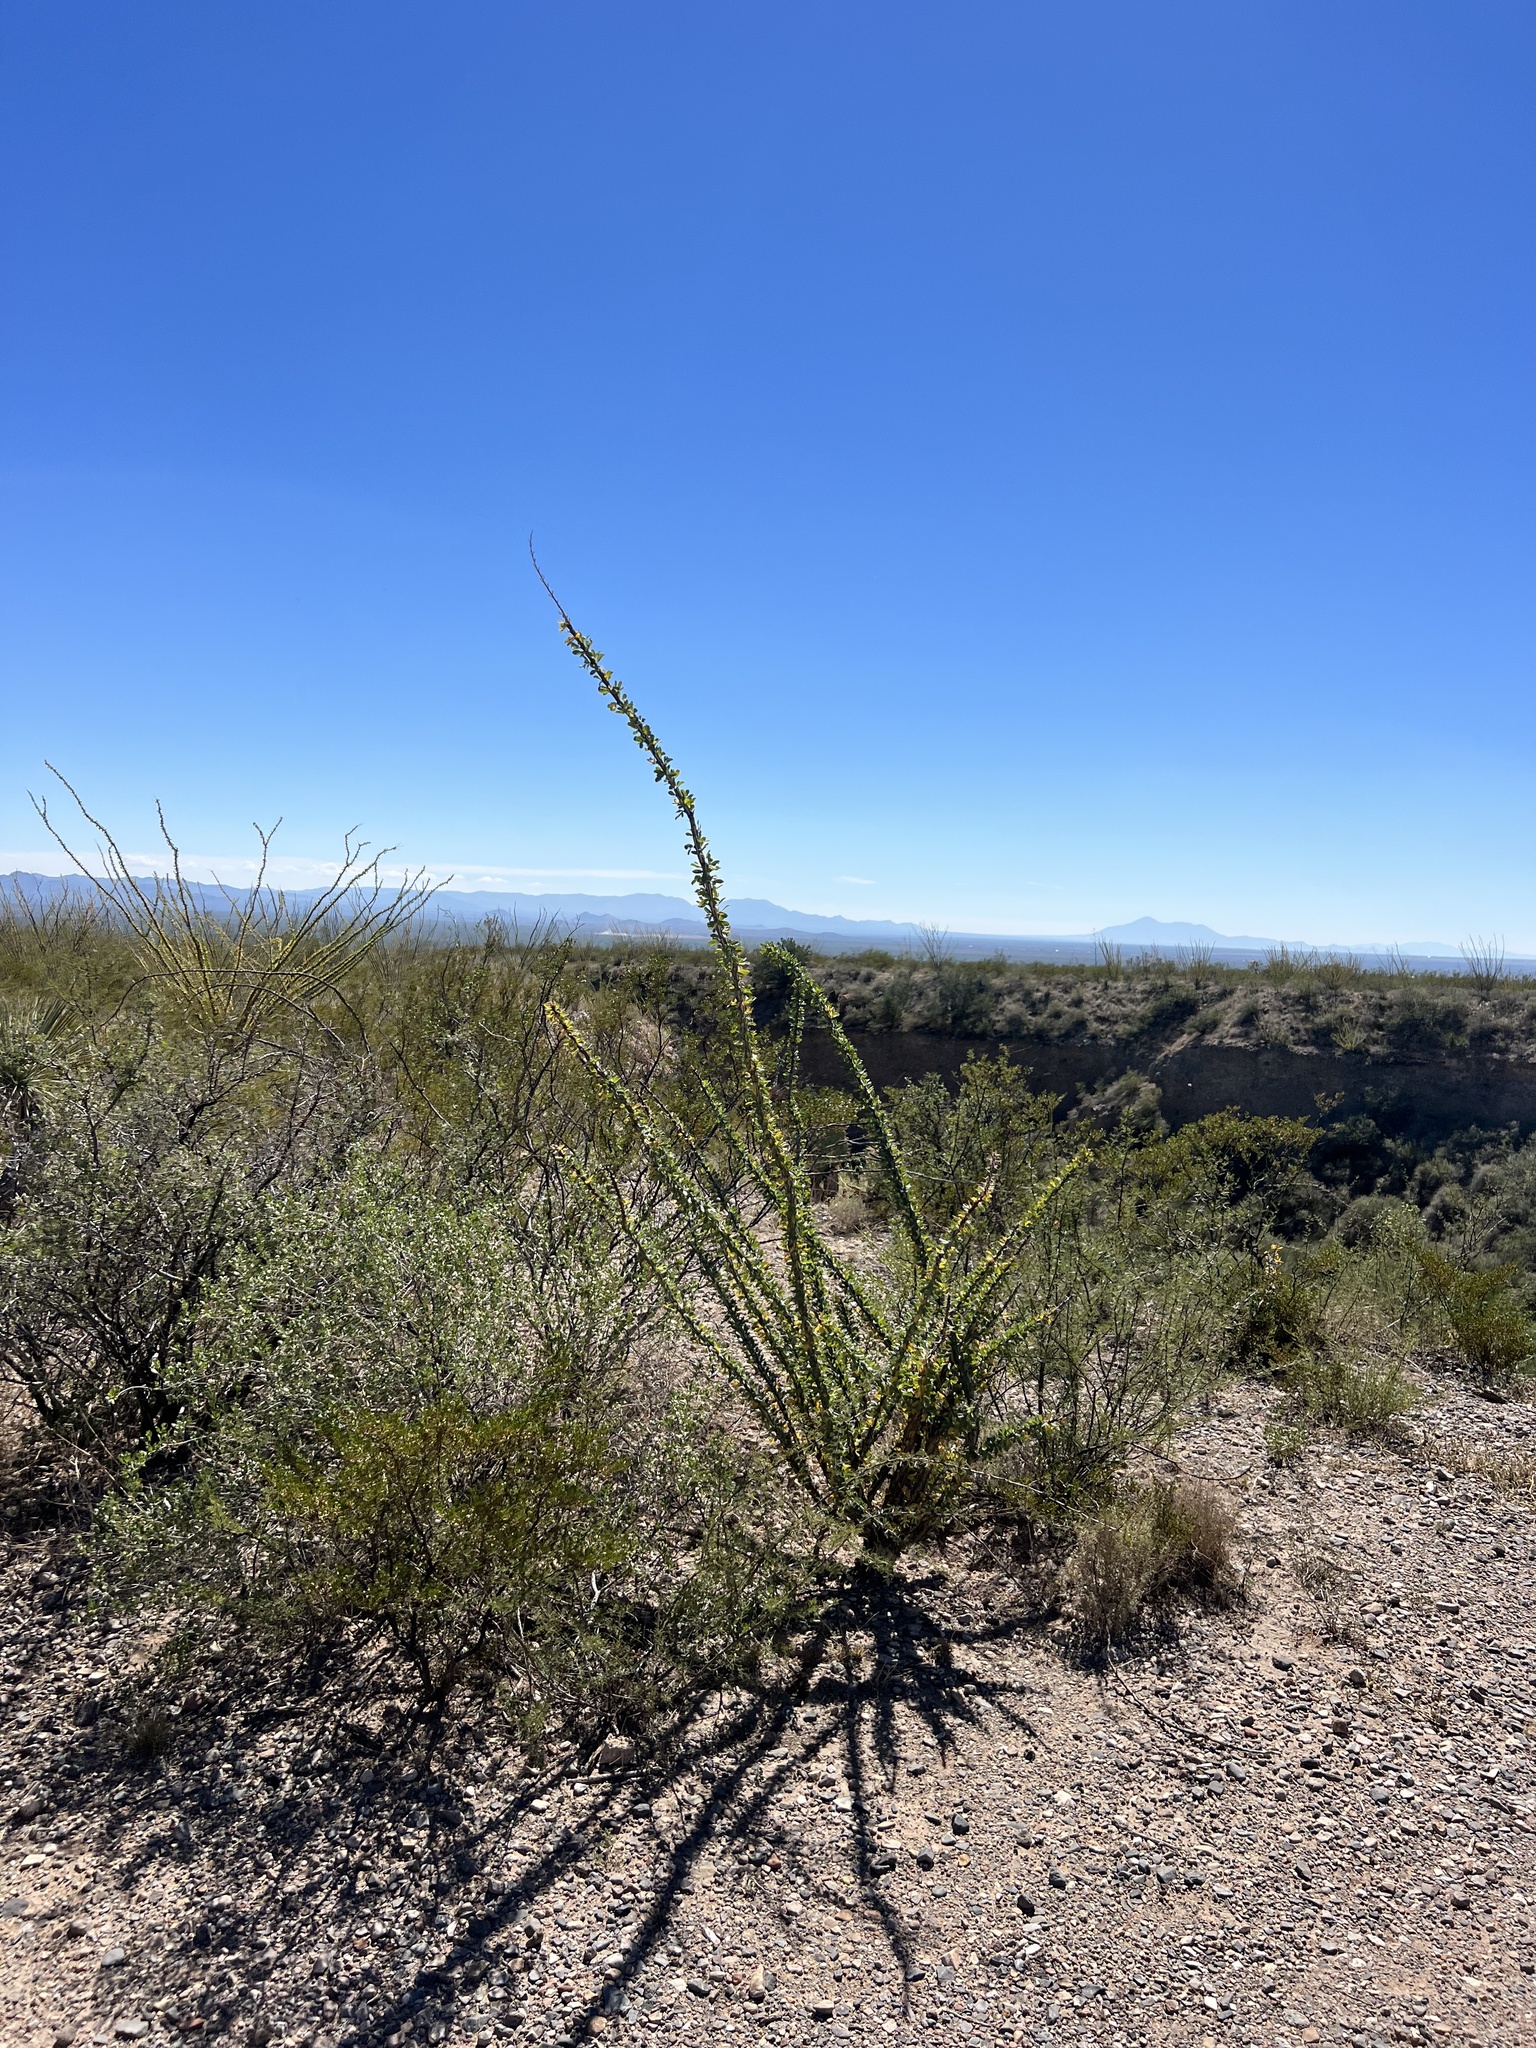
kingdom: Plantae
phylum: Tracheophyta
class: Magnoliopsida
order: Ericales
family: Fouquieriaceae
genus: Fouquieria
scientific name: Fouquieria splendens
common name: Vine-cactus
